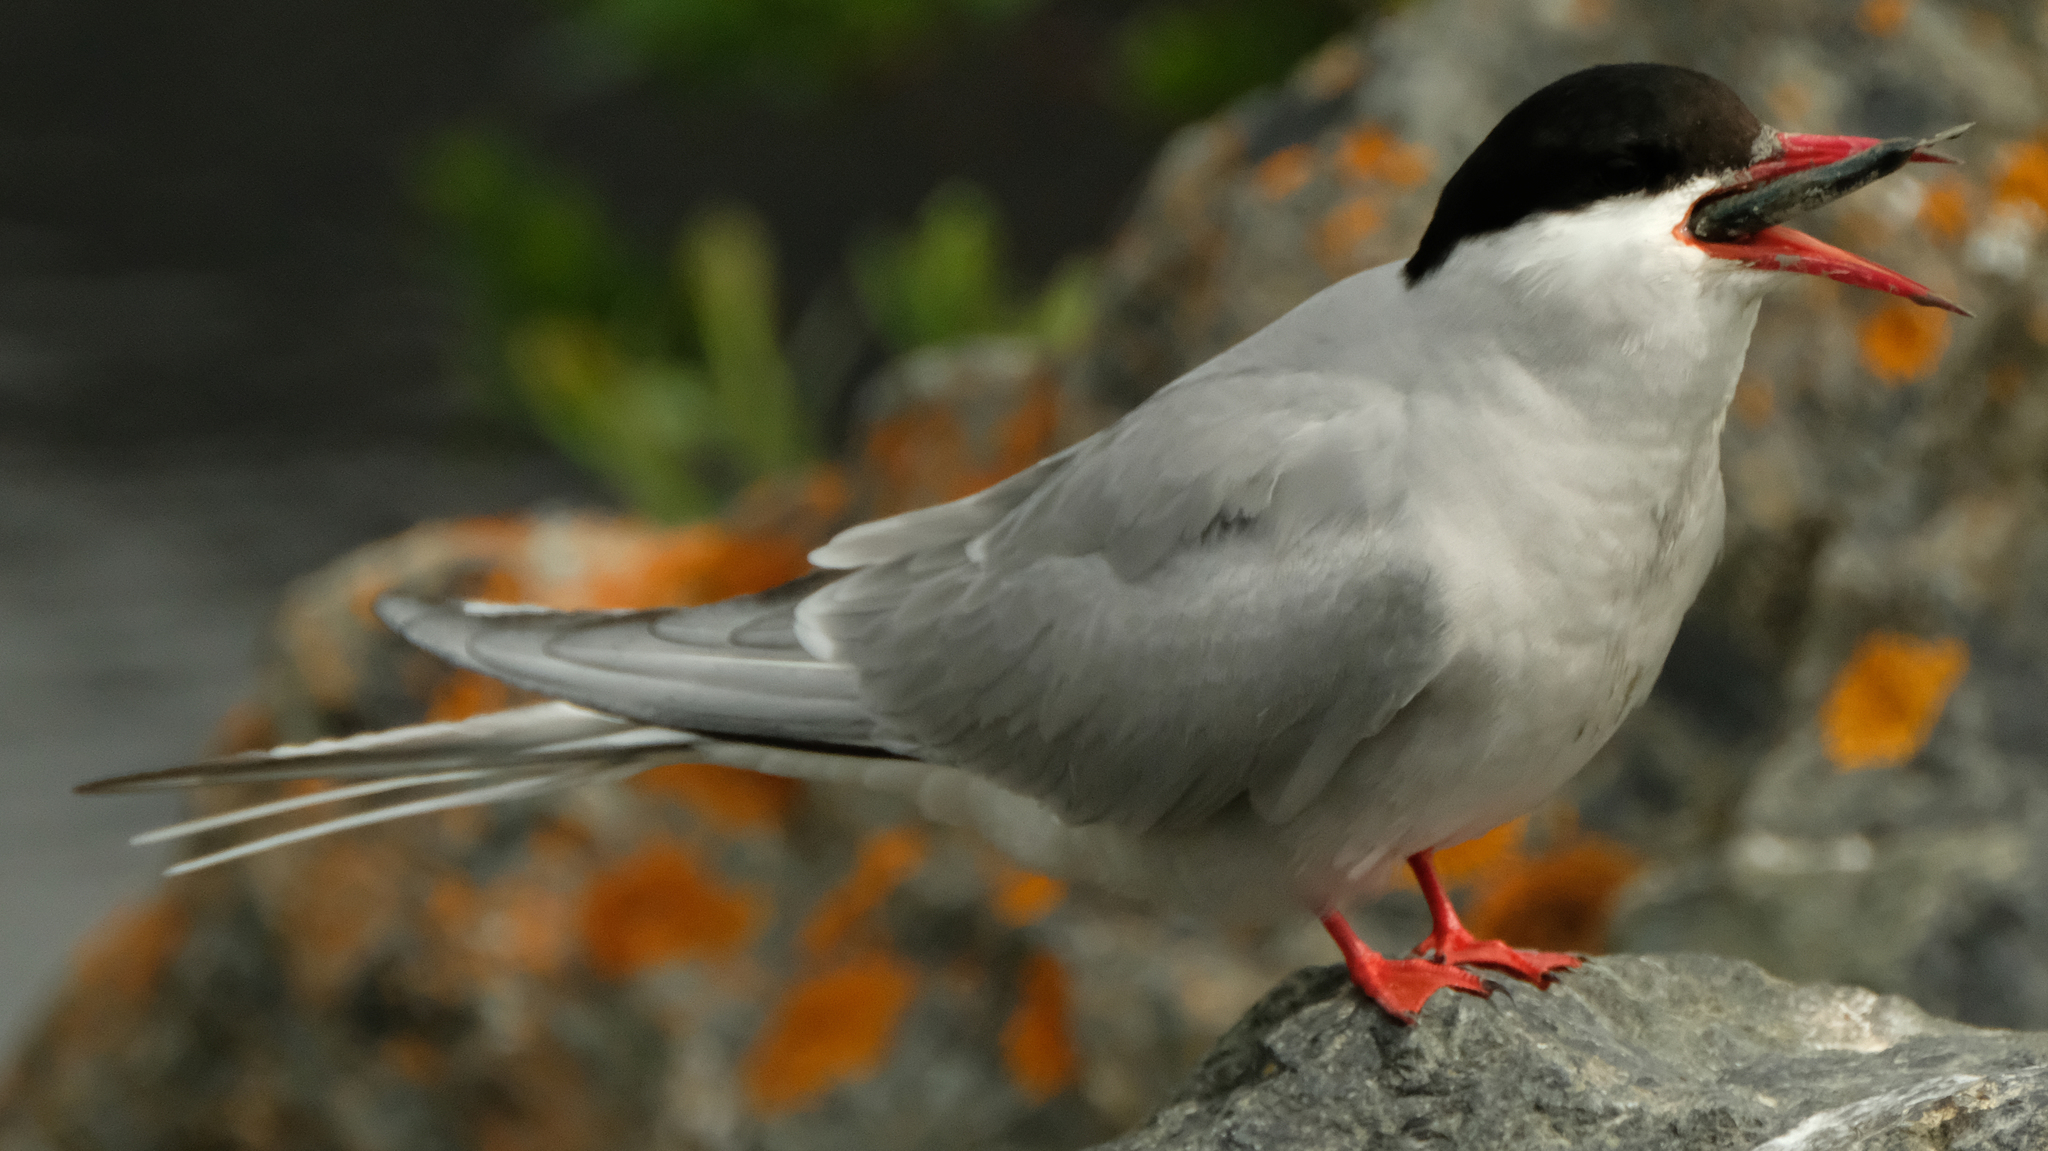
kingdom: Animalia
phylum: Chordata
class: Aves
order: Charadriiformes
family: Laridae
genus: Sterna
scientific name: Sterna paradisaea
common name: Arctic tern
